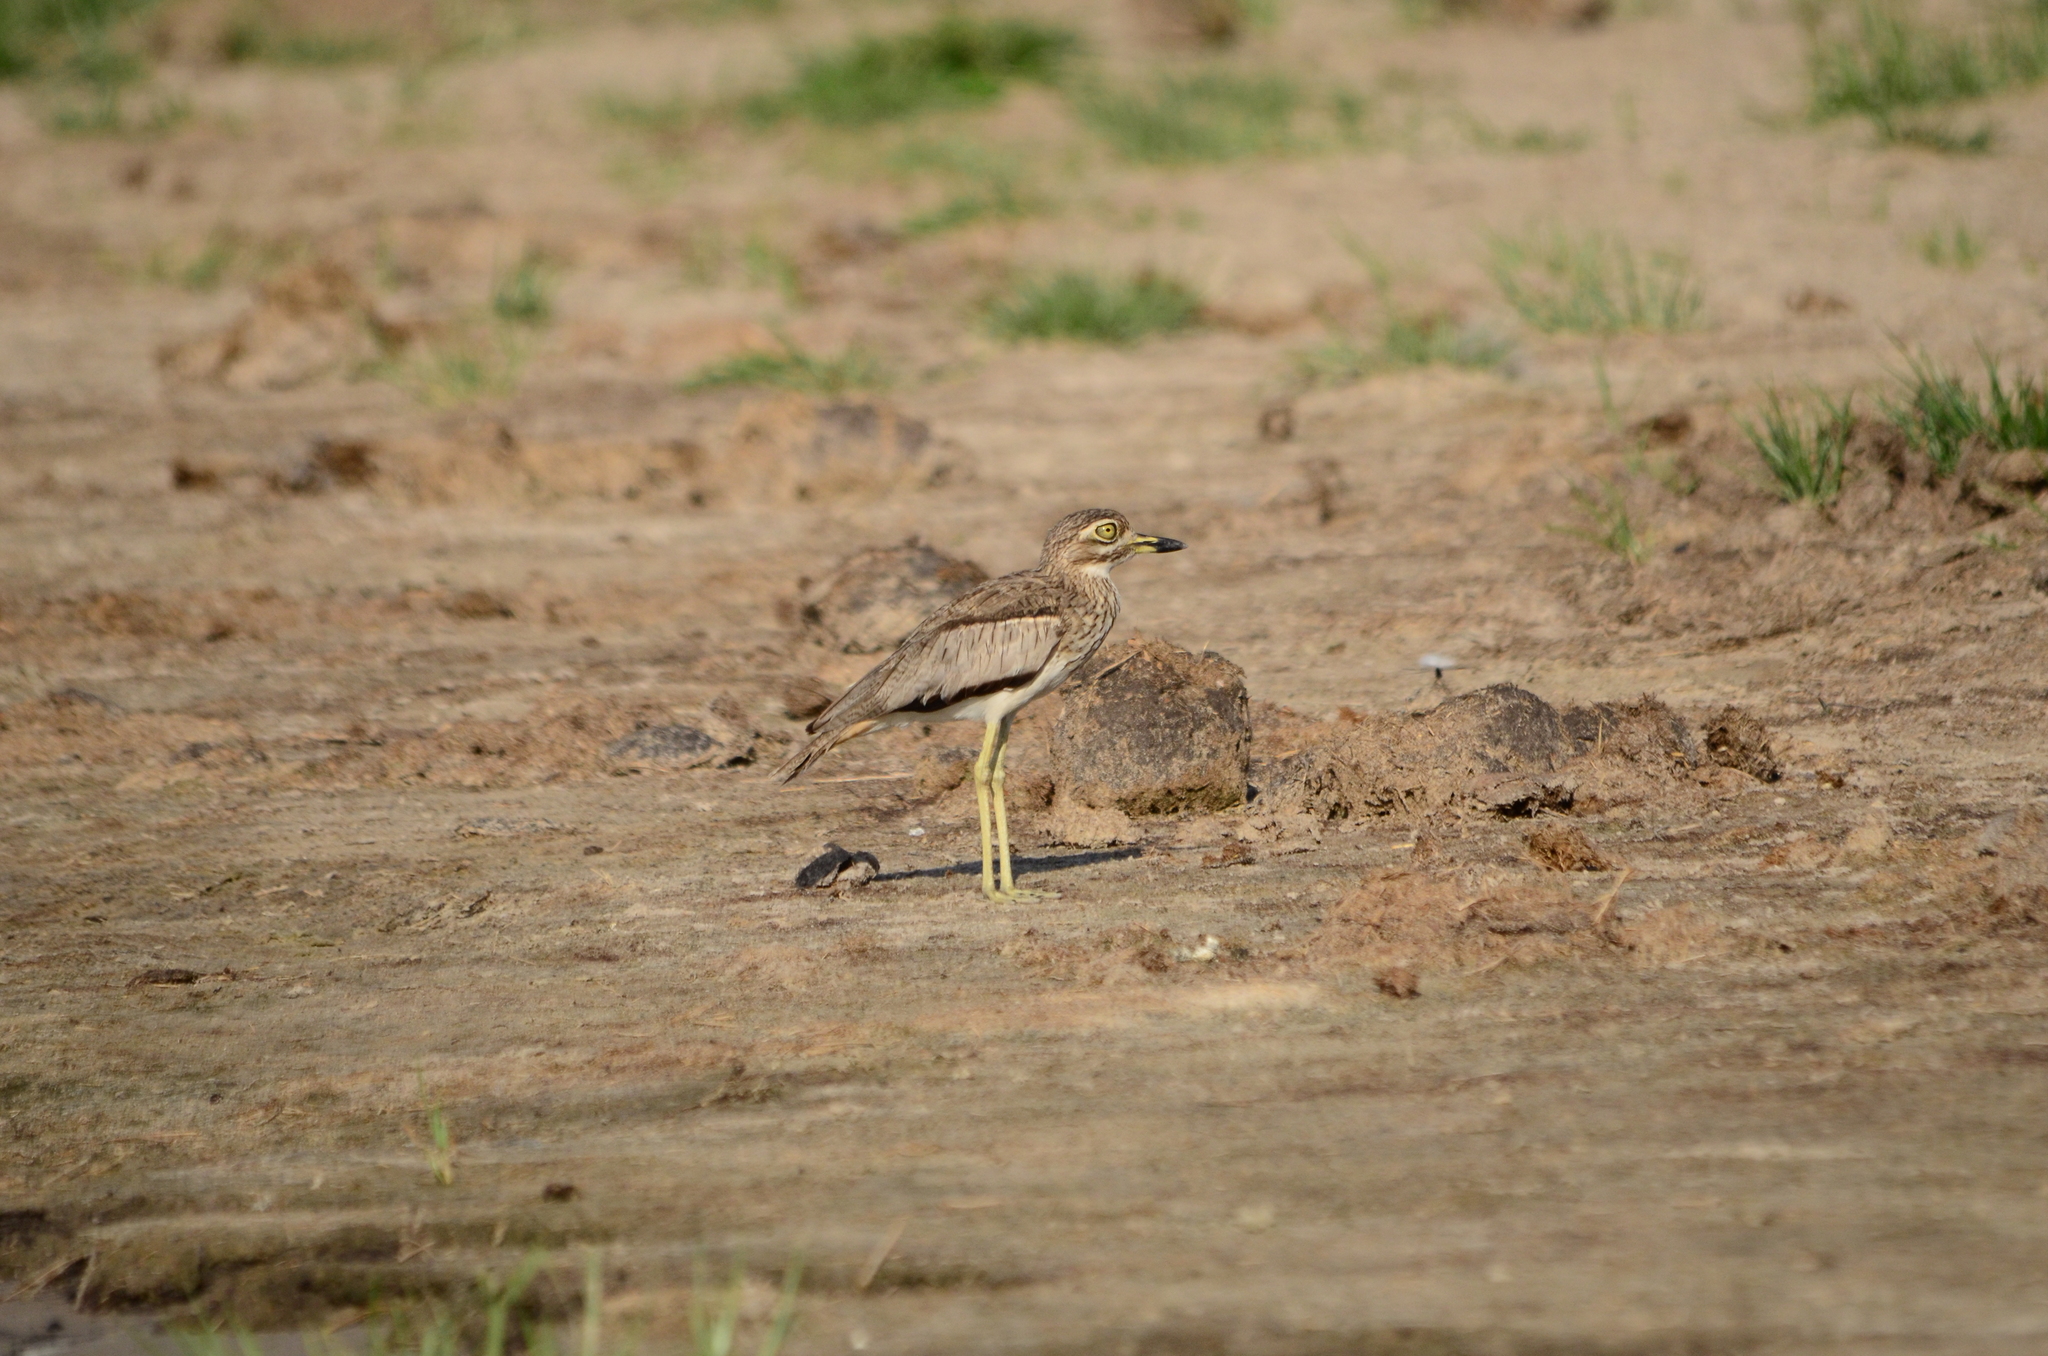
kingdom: Animalia
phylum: Chordata
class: Aves
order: Charadriiformes
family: Burhinidae
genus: Burhinus
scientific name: Burhinus vermiculatus
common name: Water thick-knee
